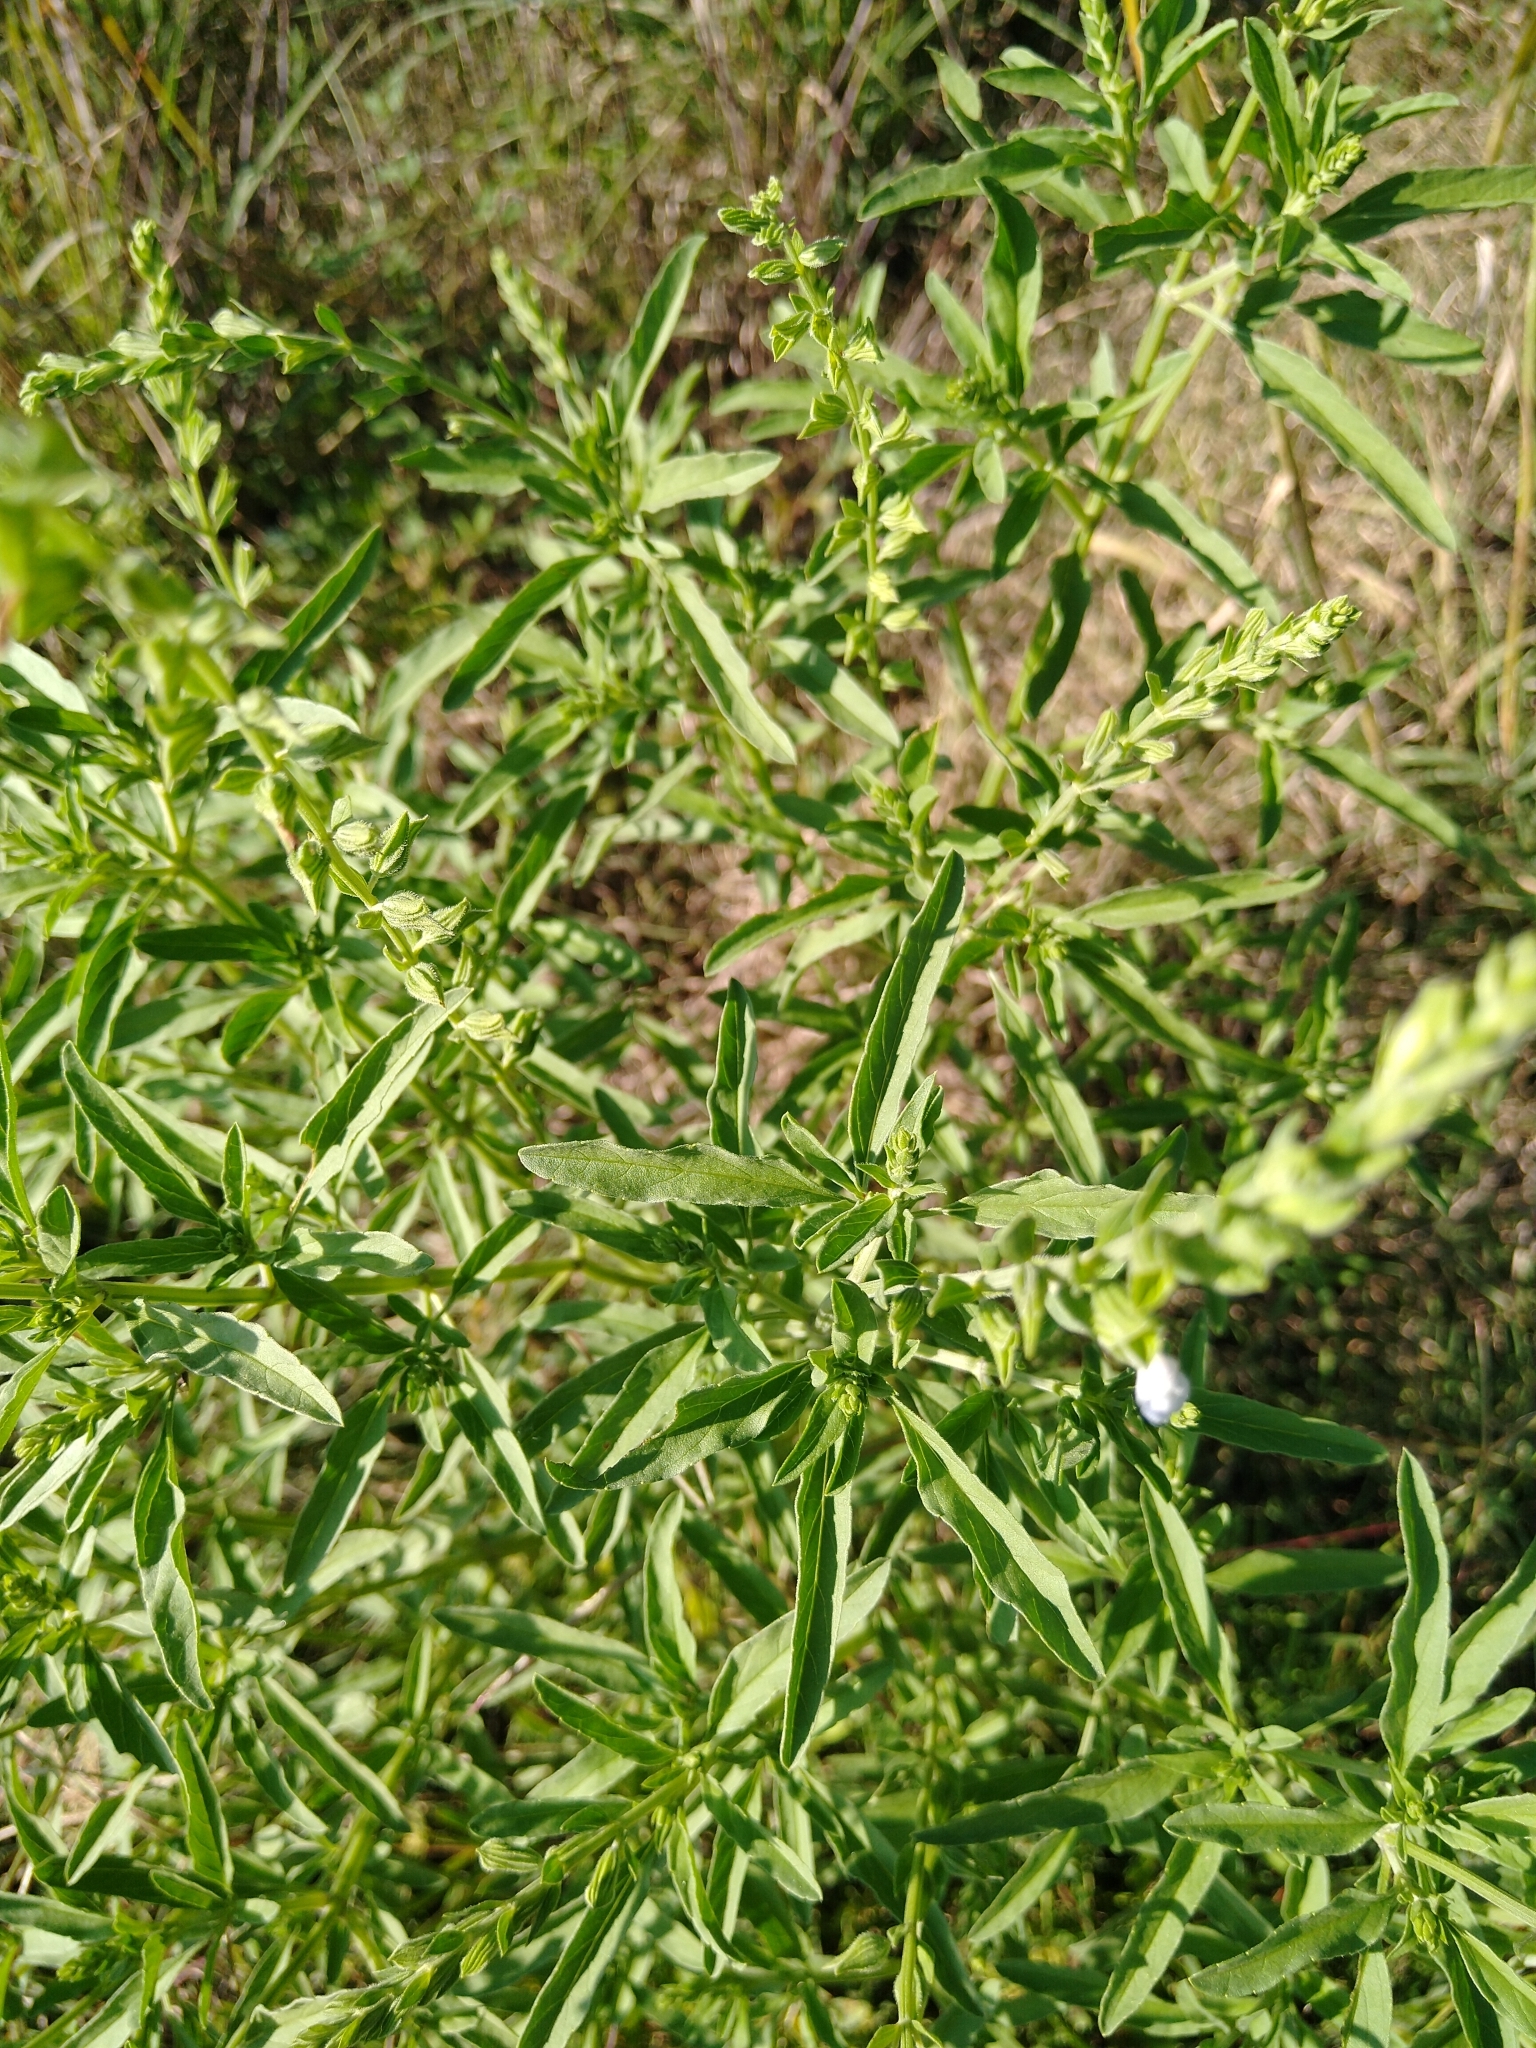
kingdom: Plantae
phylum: Tracheophyta
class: Magnoliopsida
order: Lamiales
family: Lamiaceae
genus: Salvia
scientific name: Salvia reflexa
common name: Mintweed
